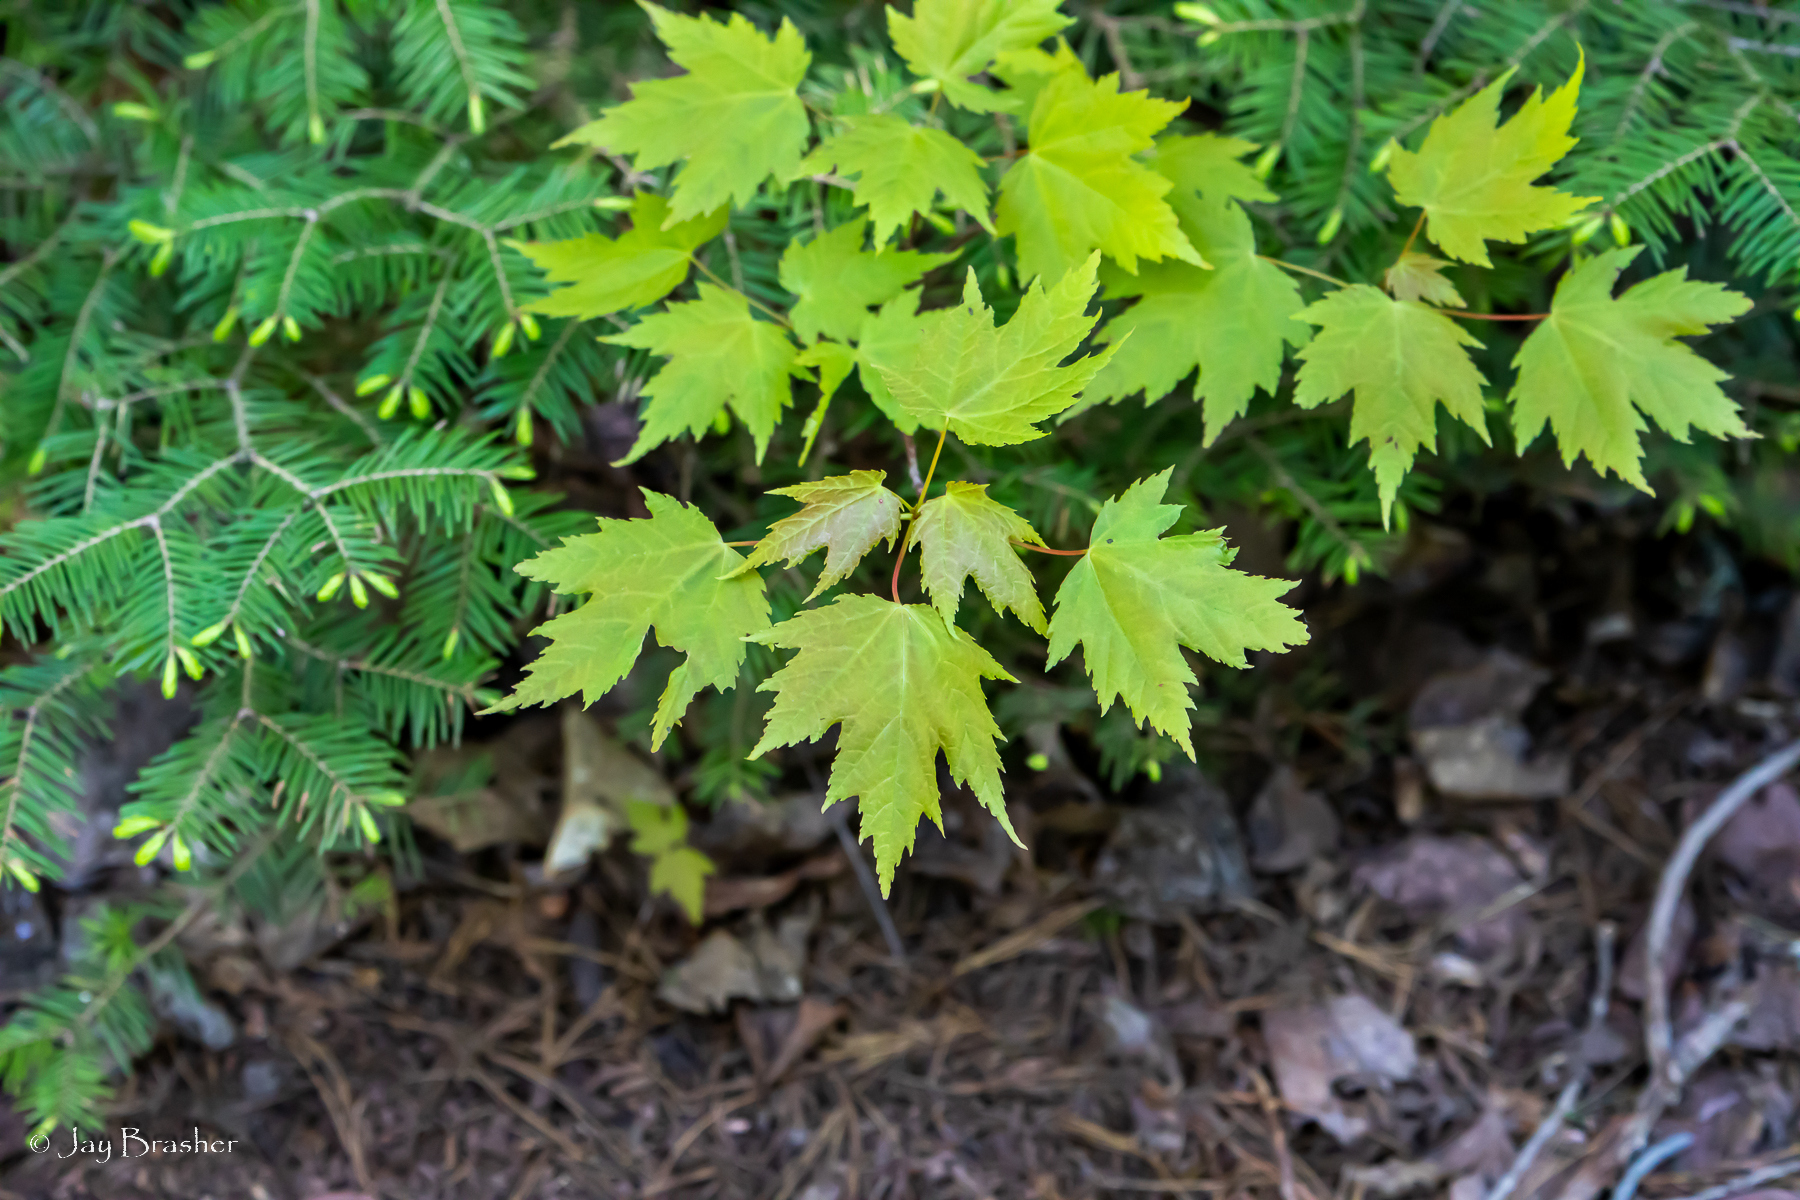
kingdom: Plantae
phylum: Tracheophyta
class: Magnoliopsida
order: Sapindales
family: Sapindaceae
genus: Acer
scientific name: Acer rubrum
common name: Red maple
